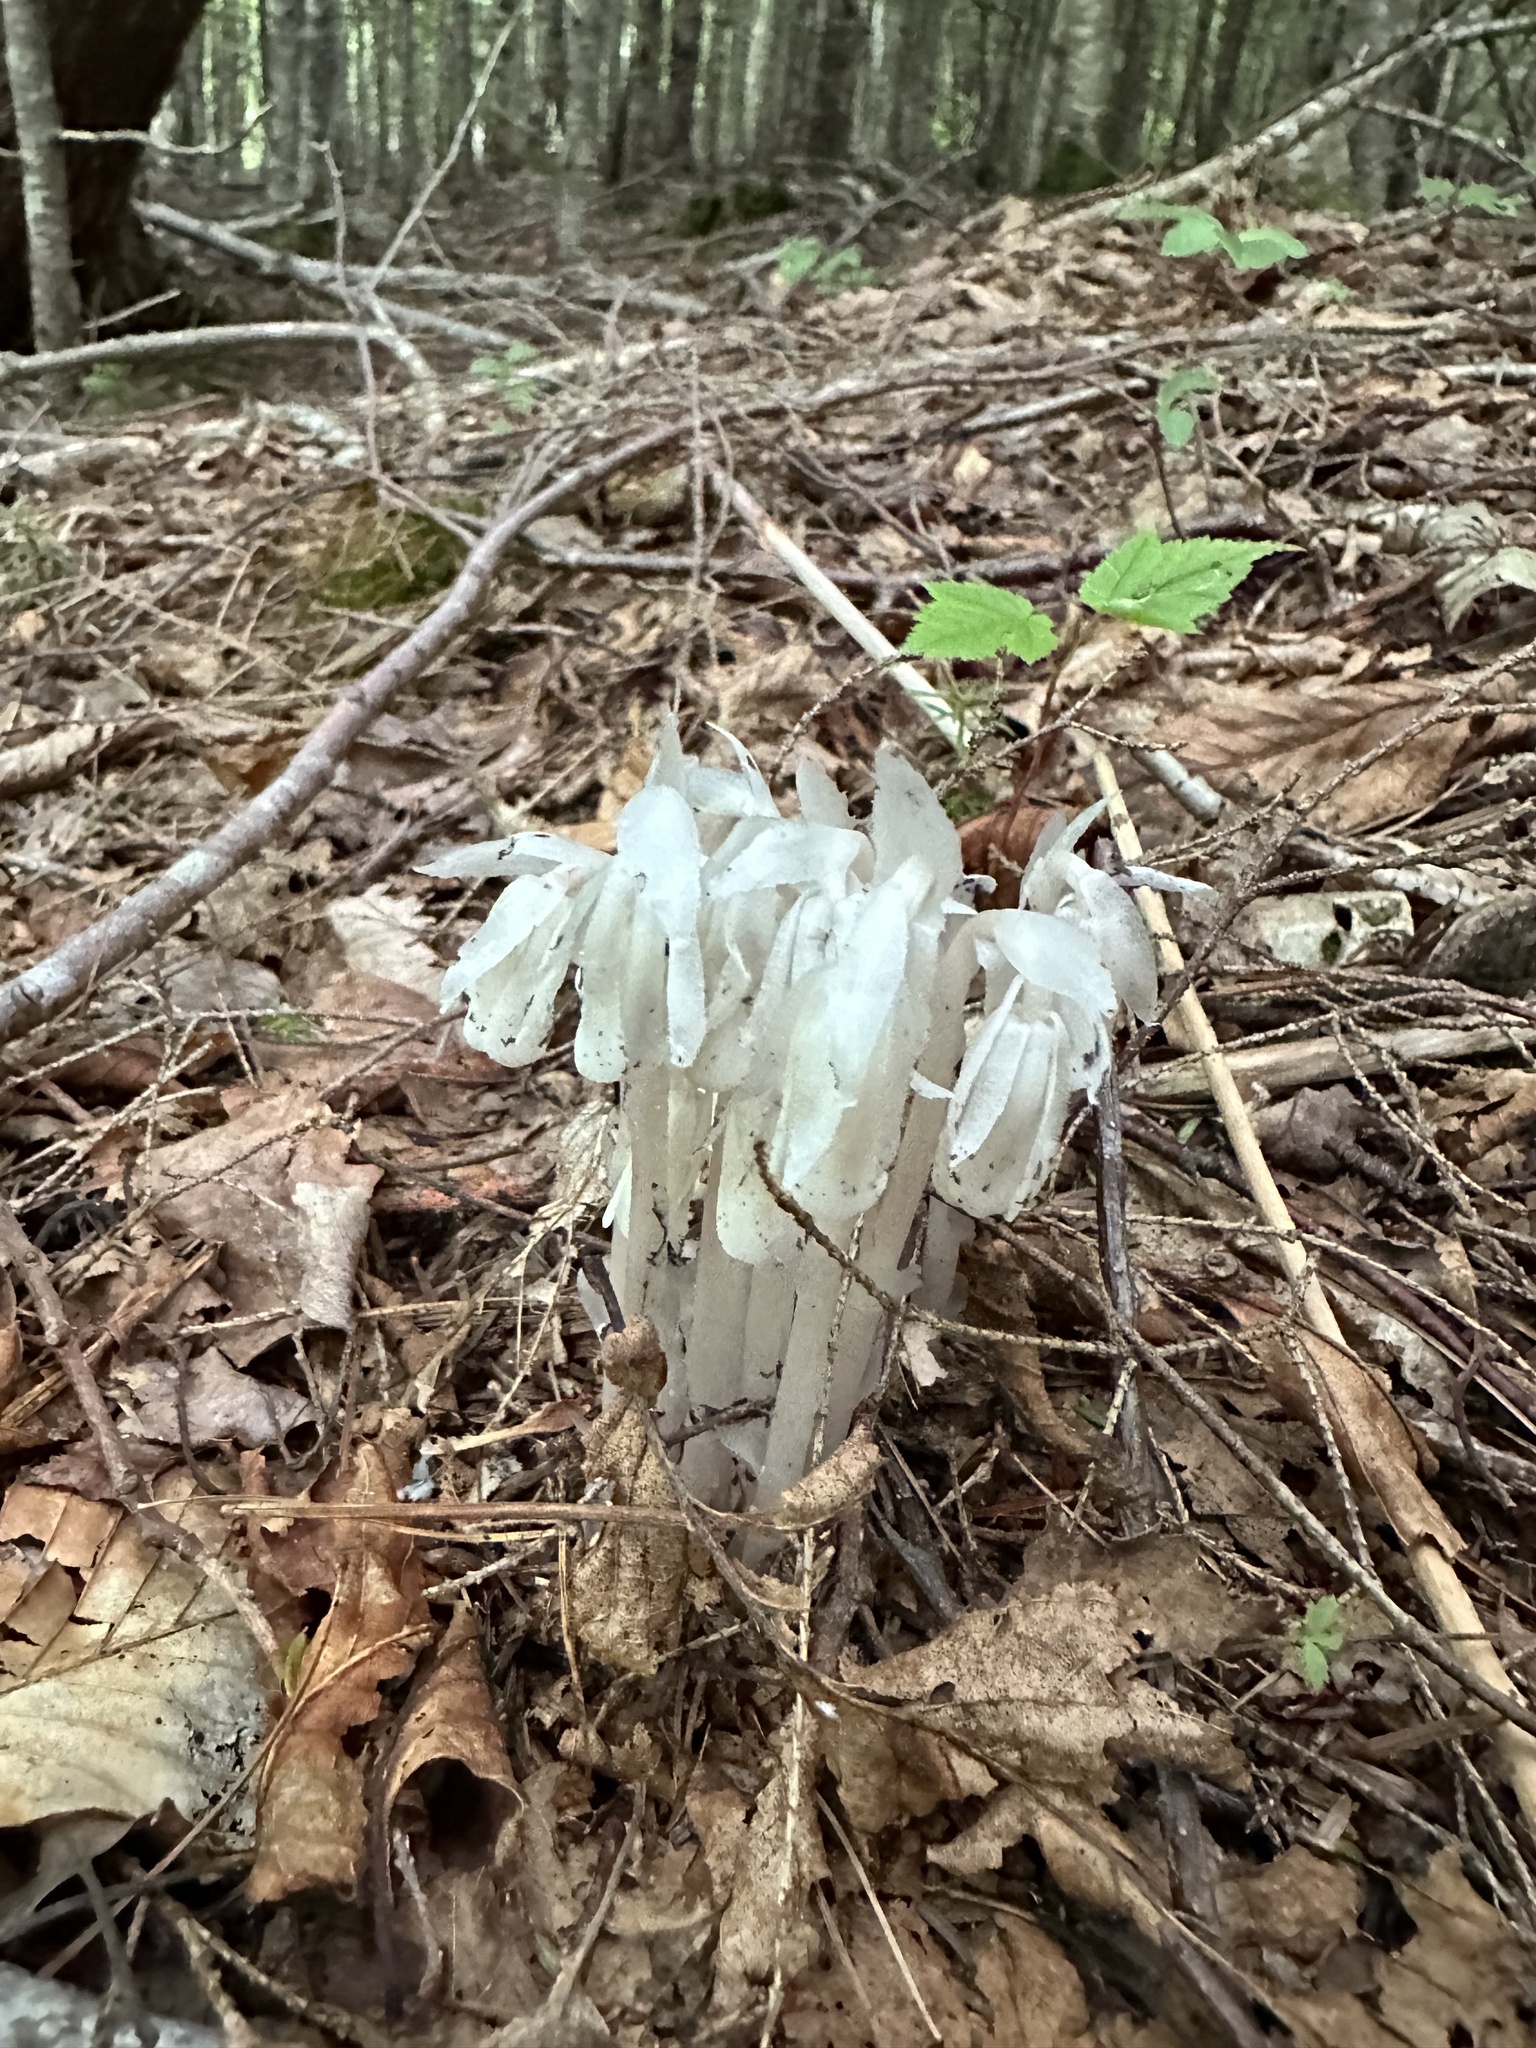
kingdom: Plantae
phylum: Tracheophyta
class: Magnoliopsida
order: Ericales
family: Ericaceae
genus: Monotropa
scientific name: Monotropa uniflora
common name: Convulsion root
